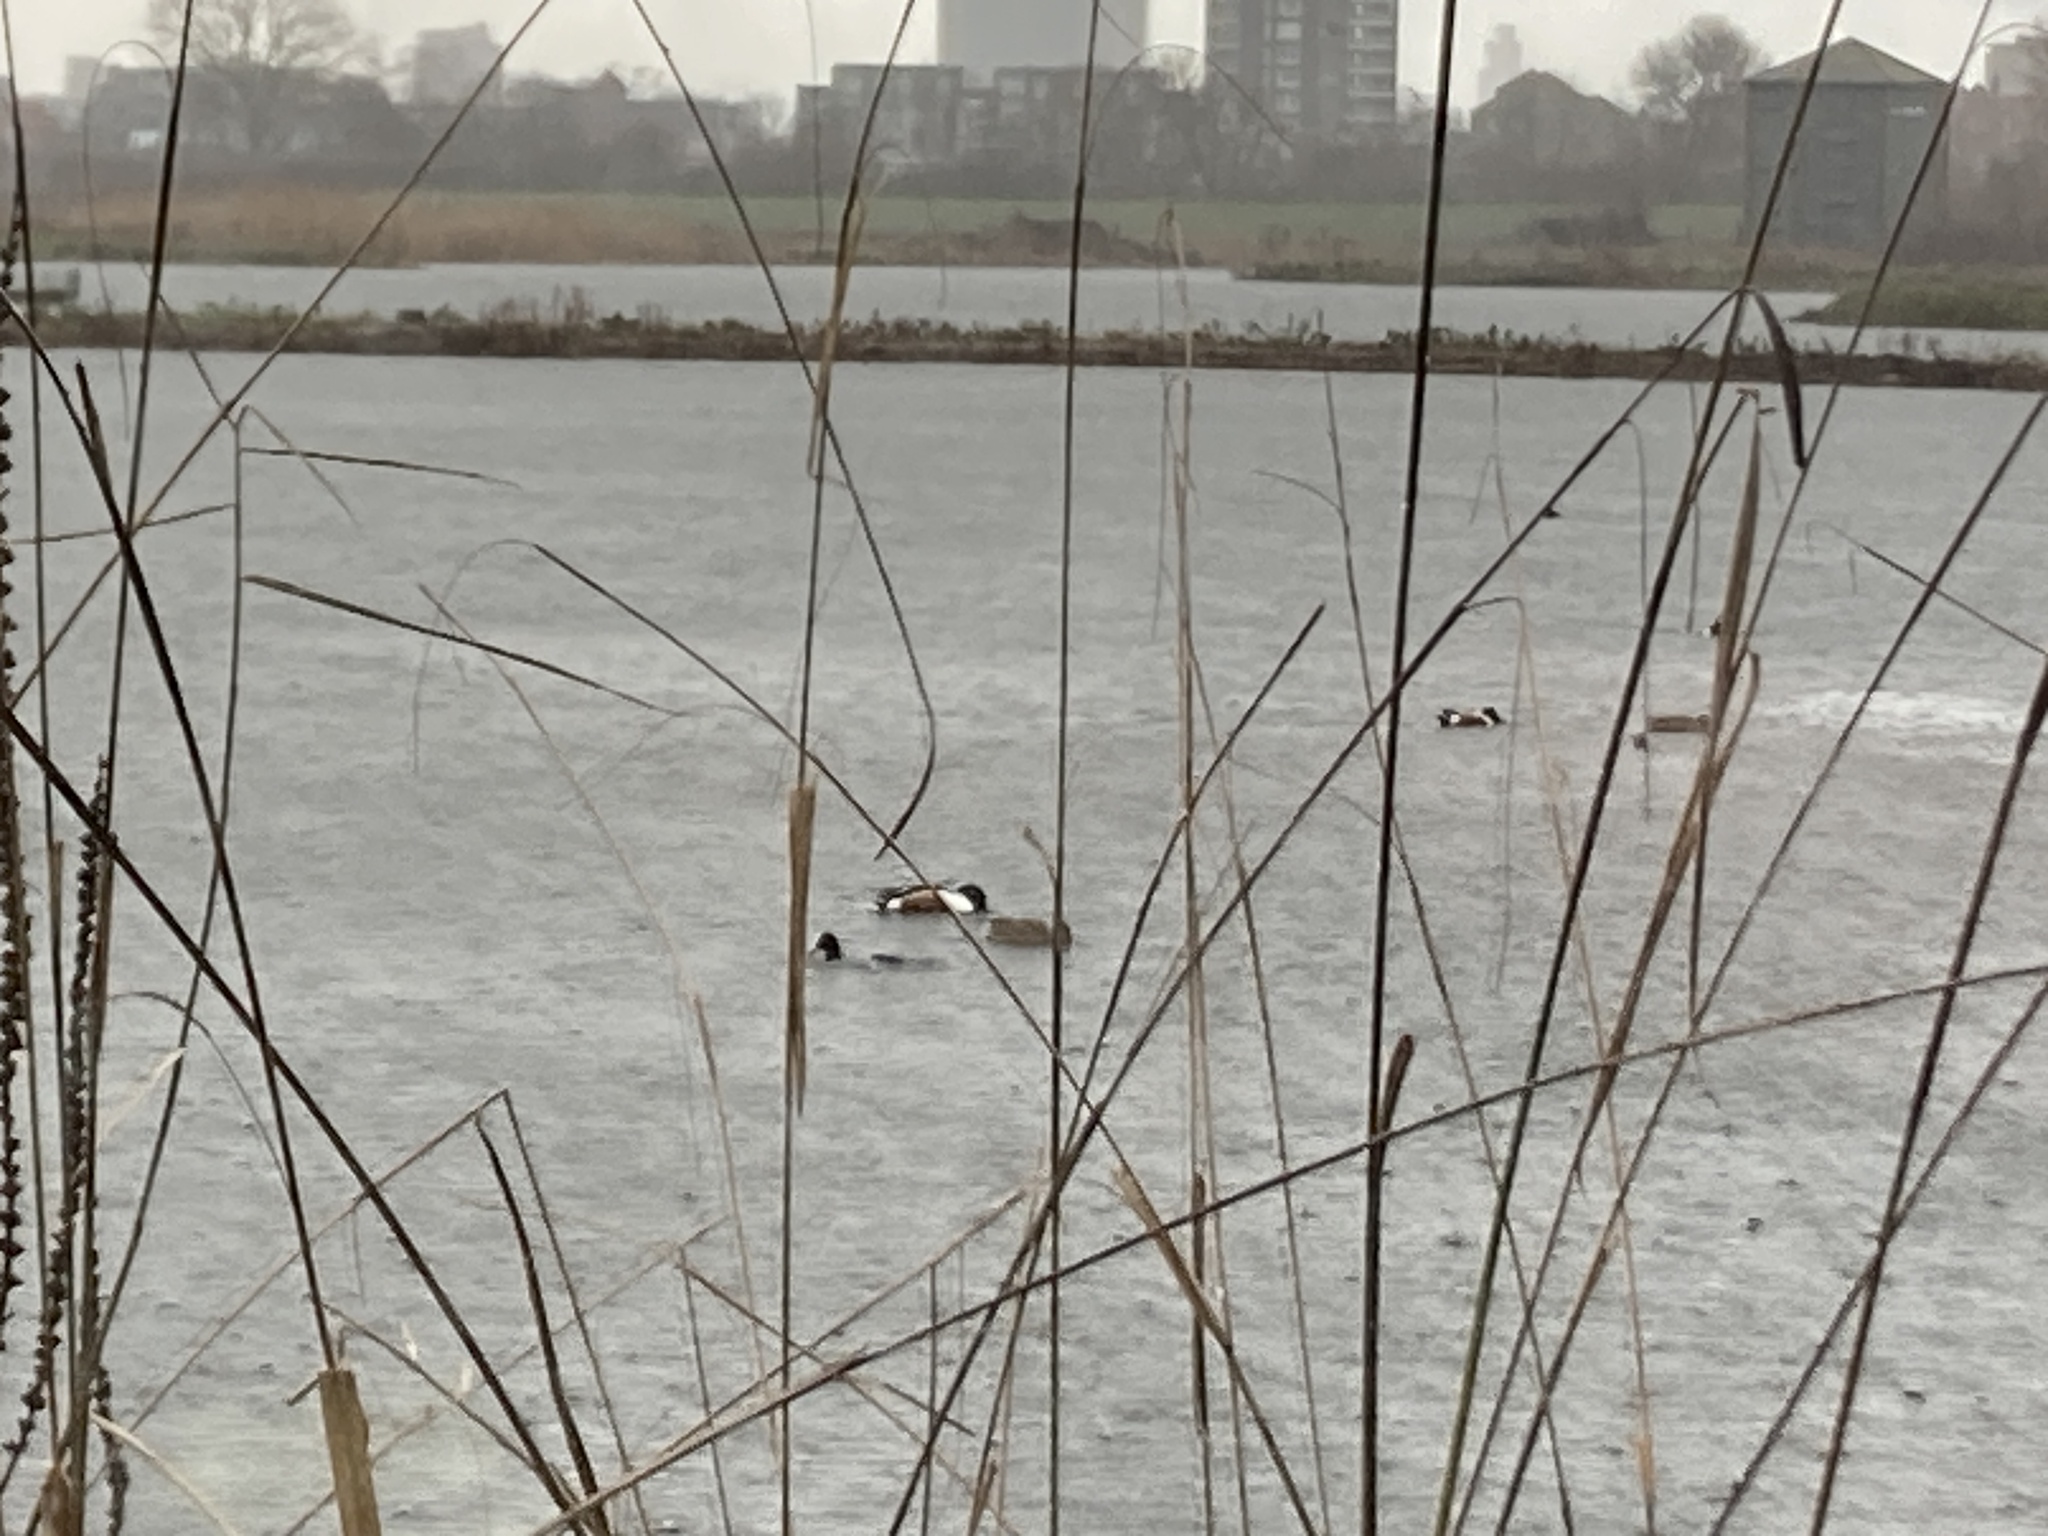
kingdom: Animalia
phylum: Chordata
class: Aves
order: Anseriformes
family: Anatidae
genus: Spatula
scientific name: Spatula clypeata
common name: Northern shoveler
